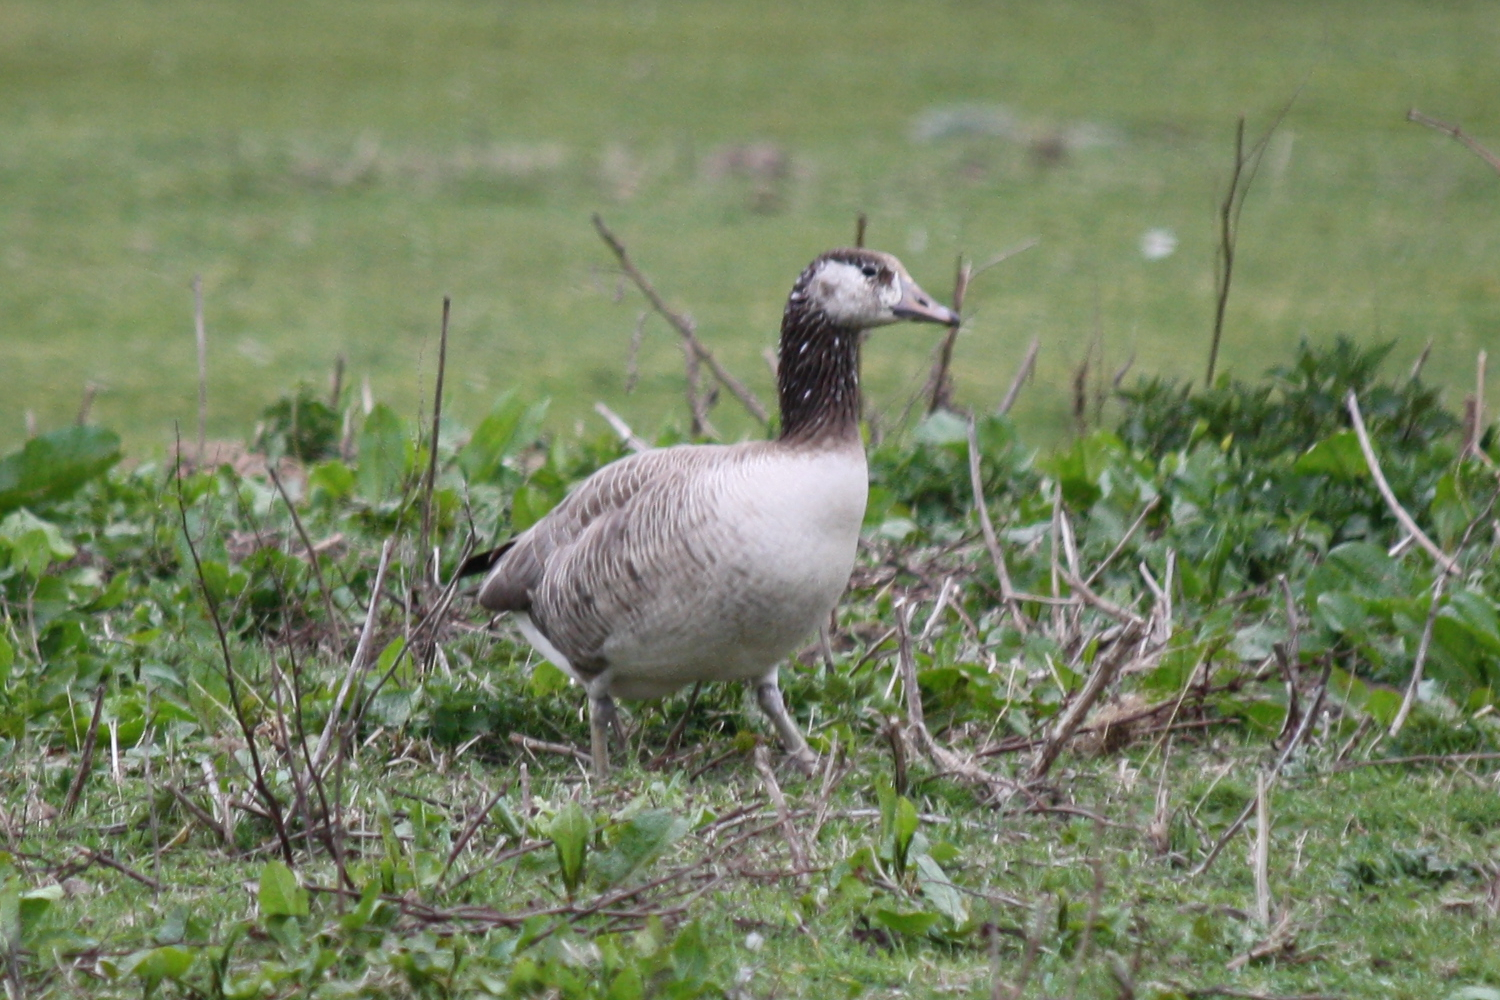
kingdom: Animalia
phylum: Chordata
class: Aves
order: Anseriformes
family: Anatidae
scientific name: Anatidae
